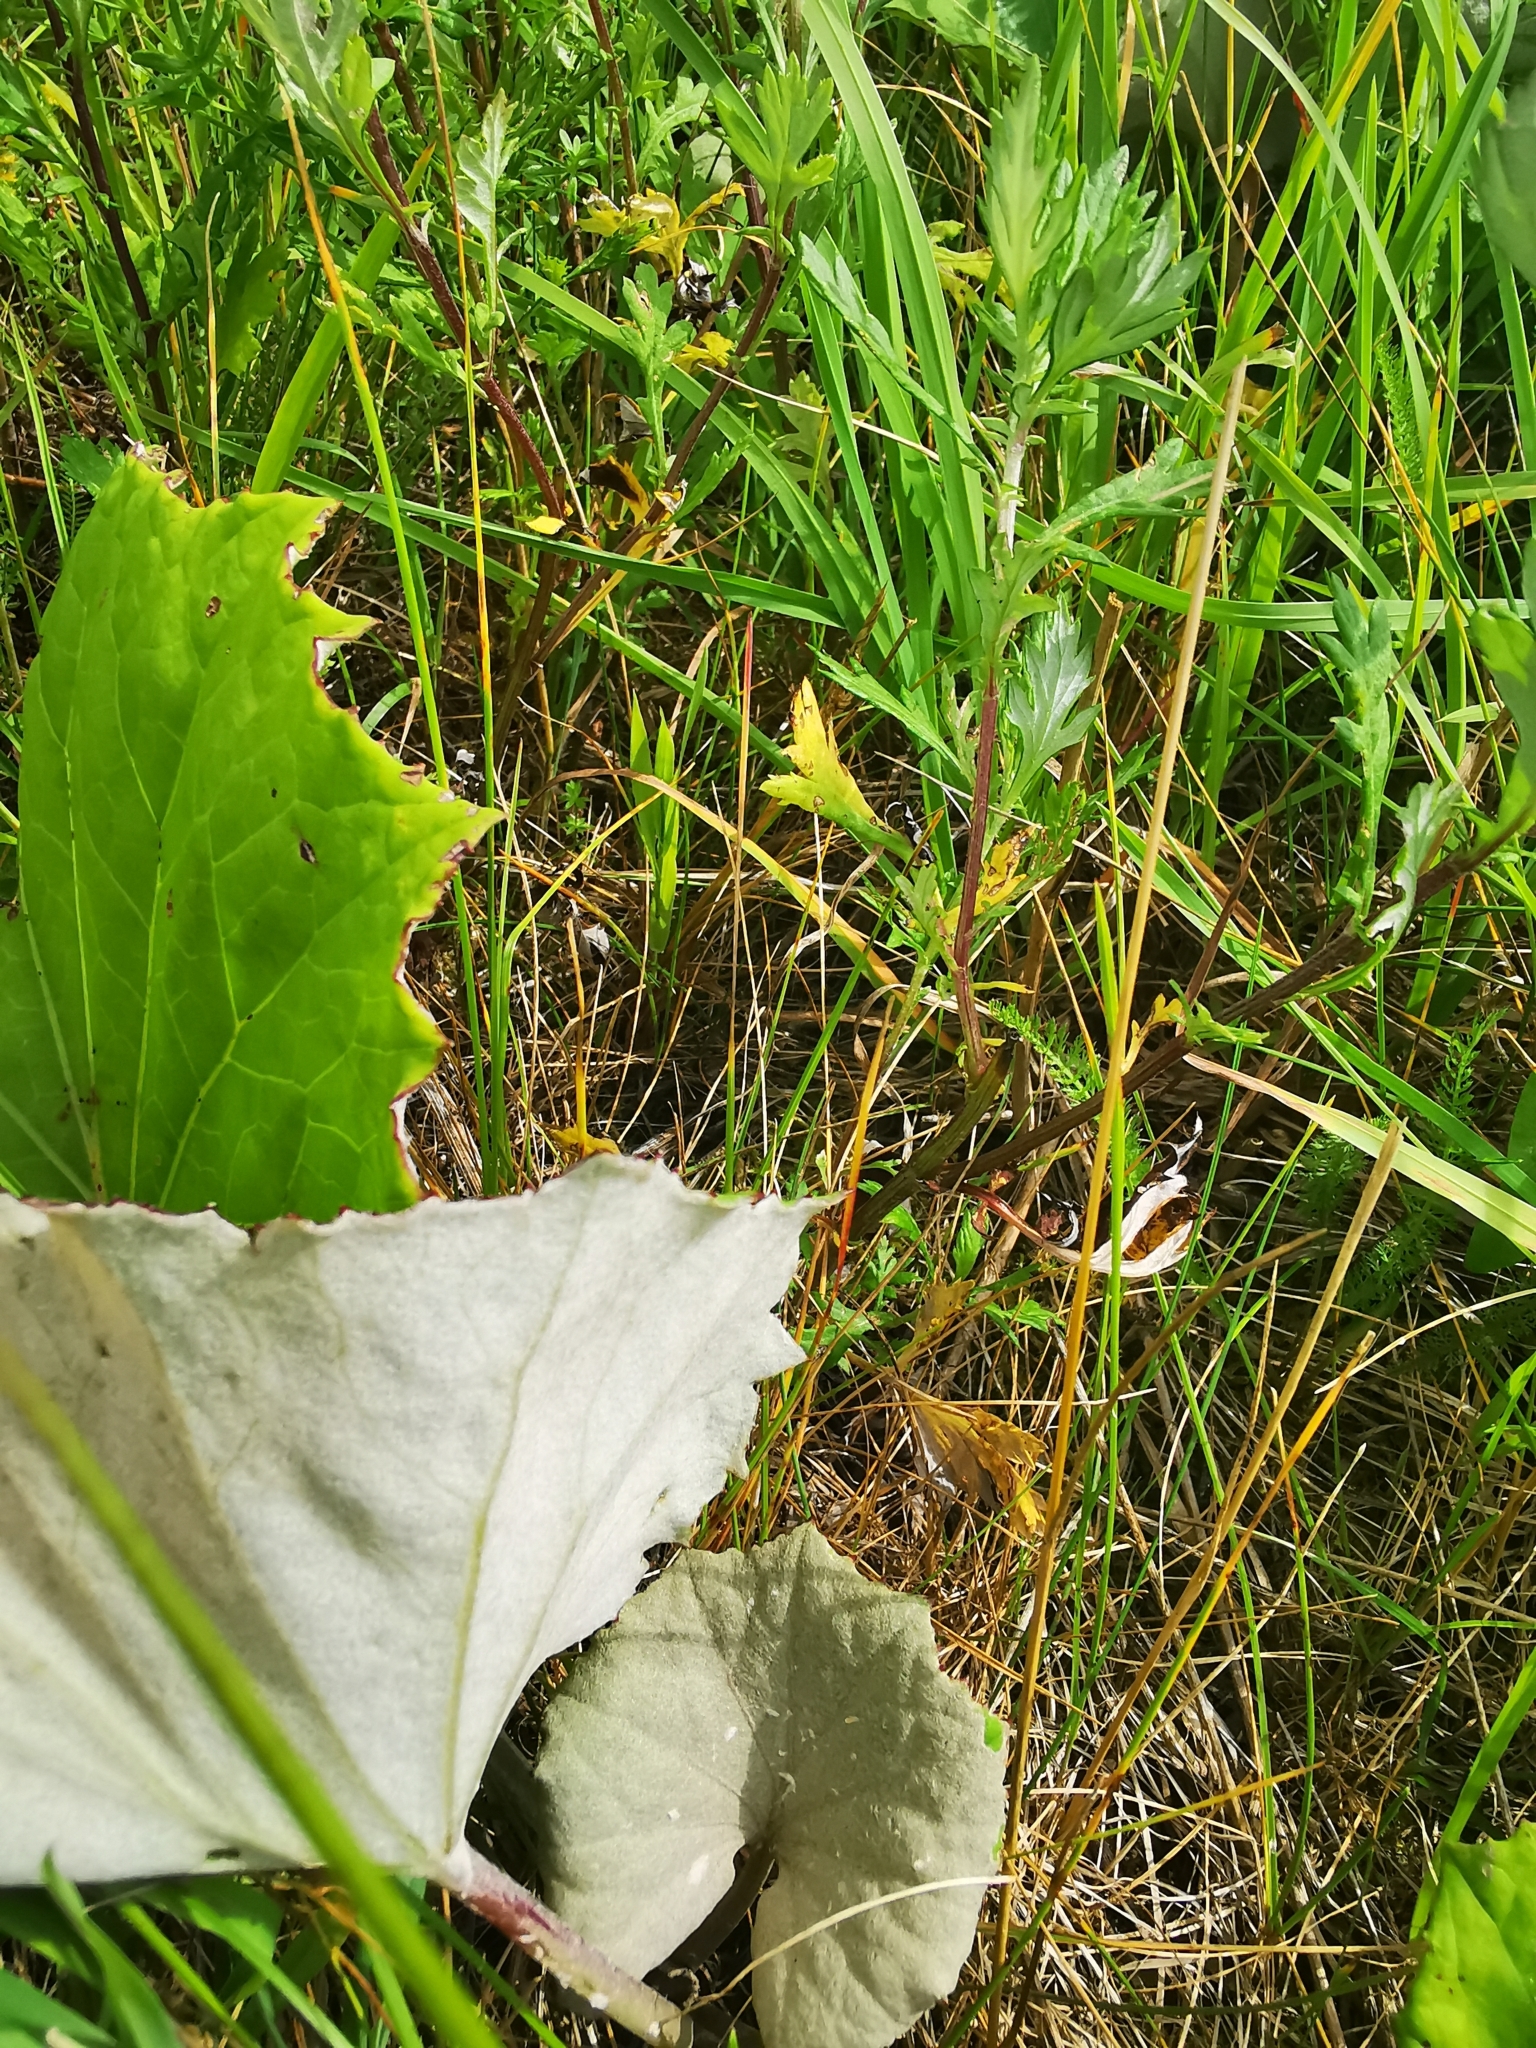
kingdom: Plantae
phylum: Tracheophyta
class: Magnoliopsida
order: Asterales
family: Asteraceae
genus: Tussilago
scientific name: Tussilago farfara
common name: Coltsfoot
